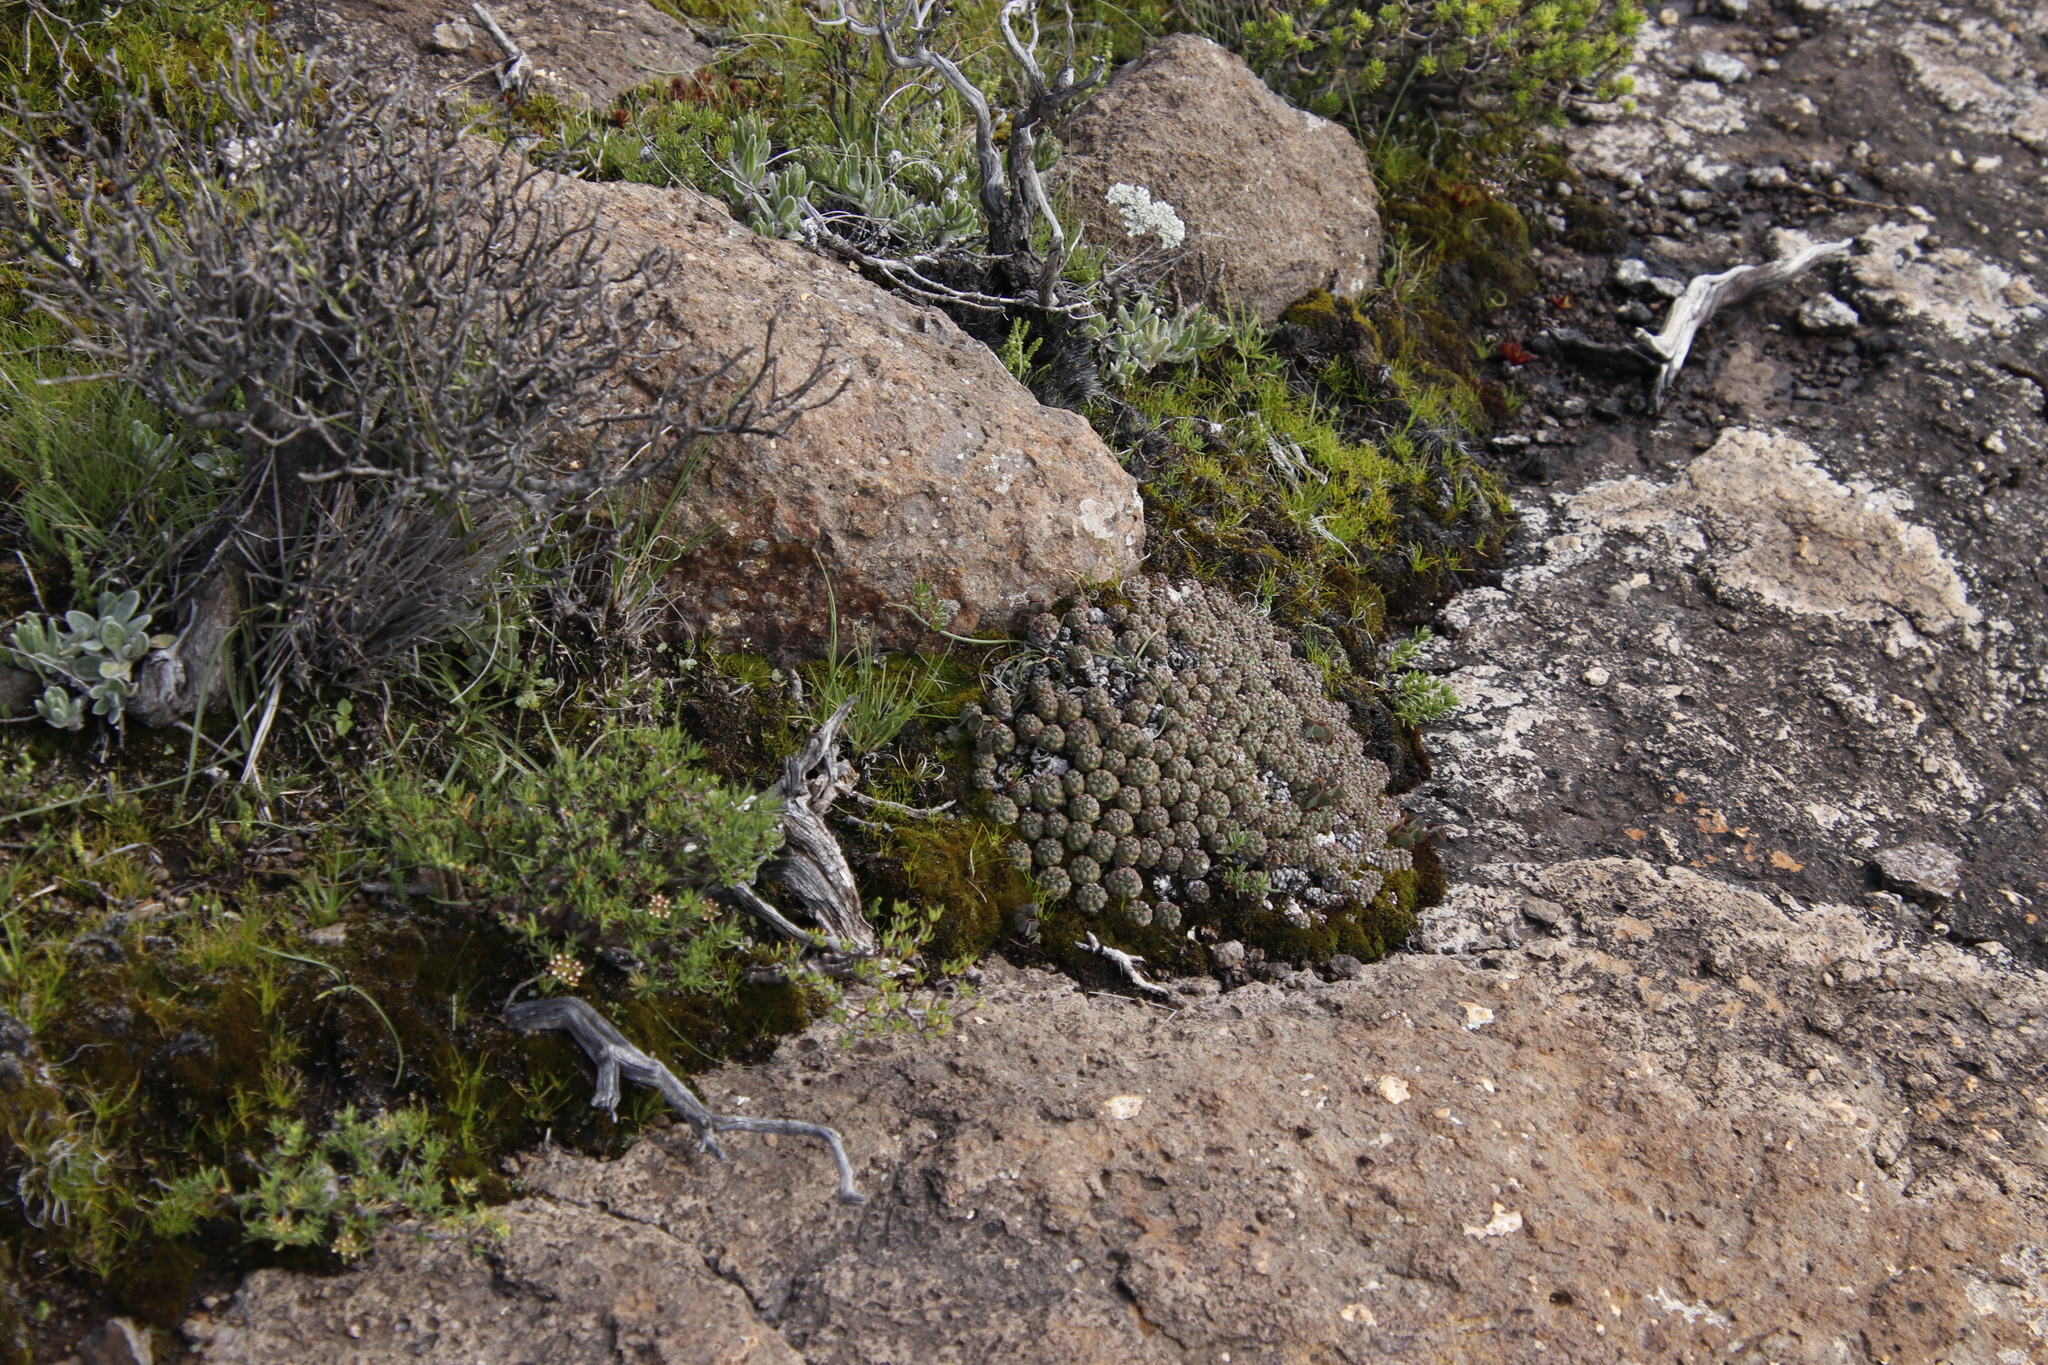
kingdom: Plantae
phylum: Tracheophyta
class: Magnoliopsida
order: Malpighiales
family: Euphorbiaceae
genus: Euphorbia
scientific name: Euphorbia clavarioides
